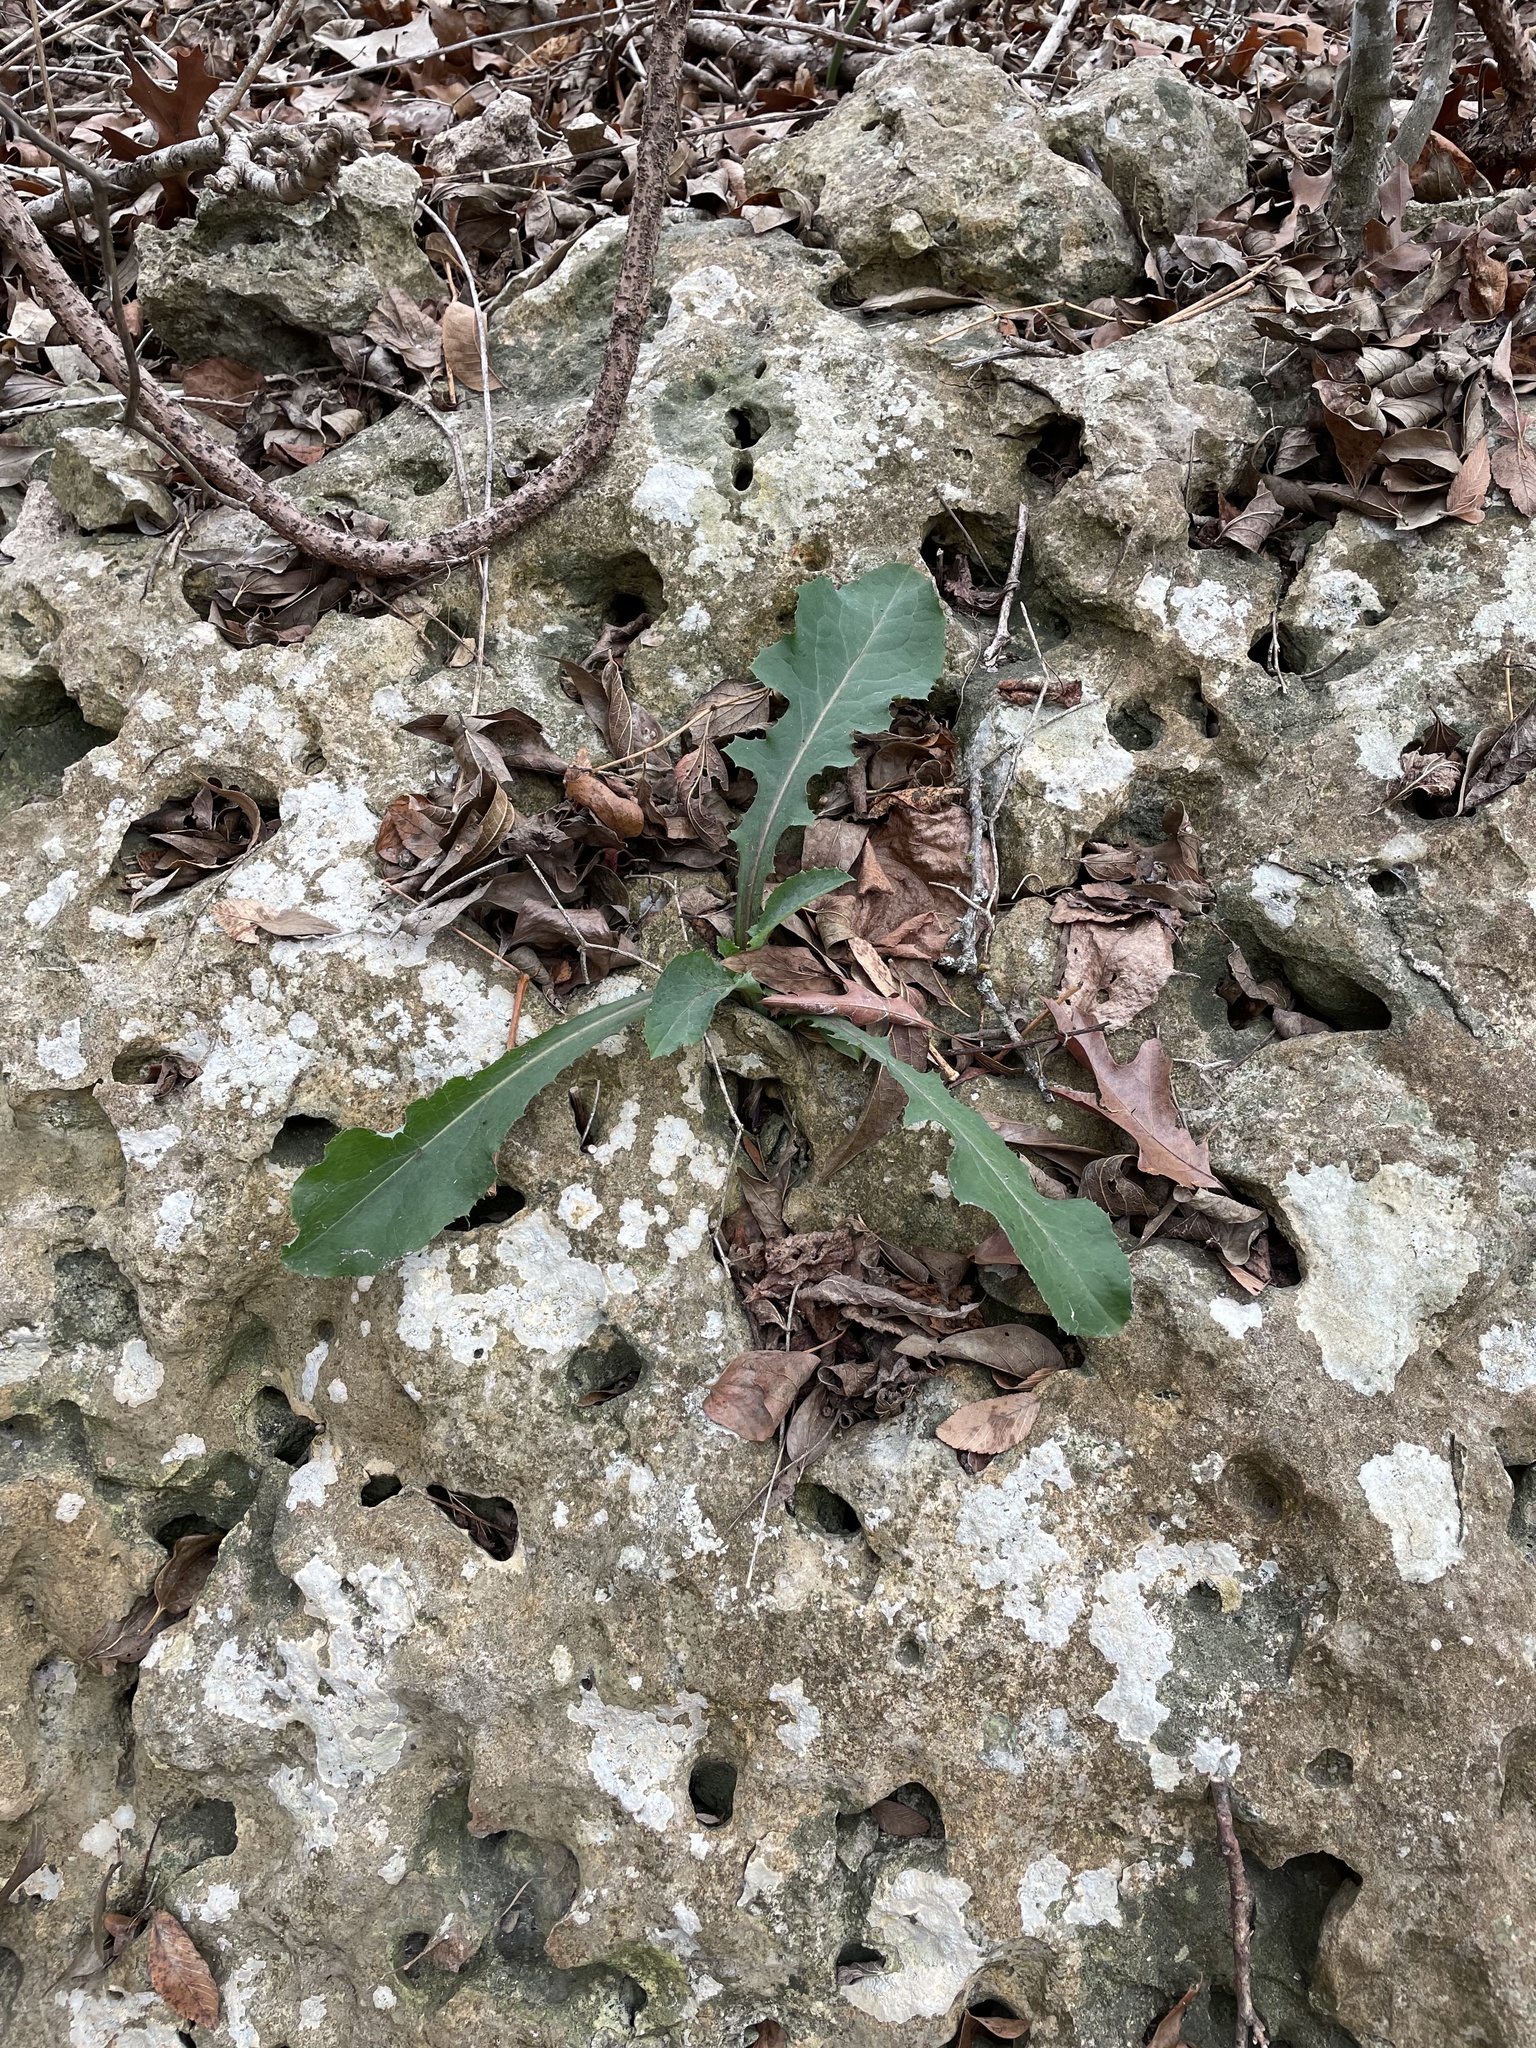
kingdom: Plantae
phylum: Tracheophyta
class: Magnoliopsida
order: Asterales
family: Asteraceae
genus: Sonchus
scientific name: Sonchus oleraceus
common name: Common sowthistle
